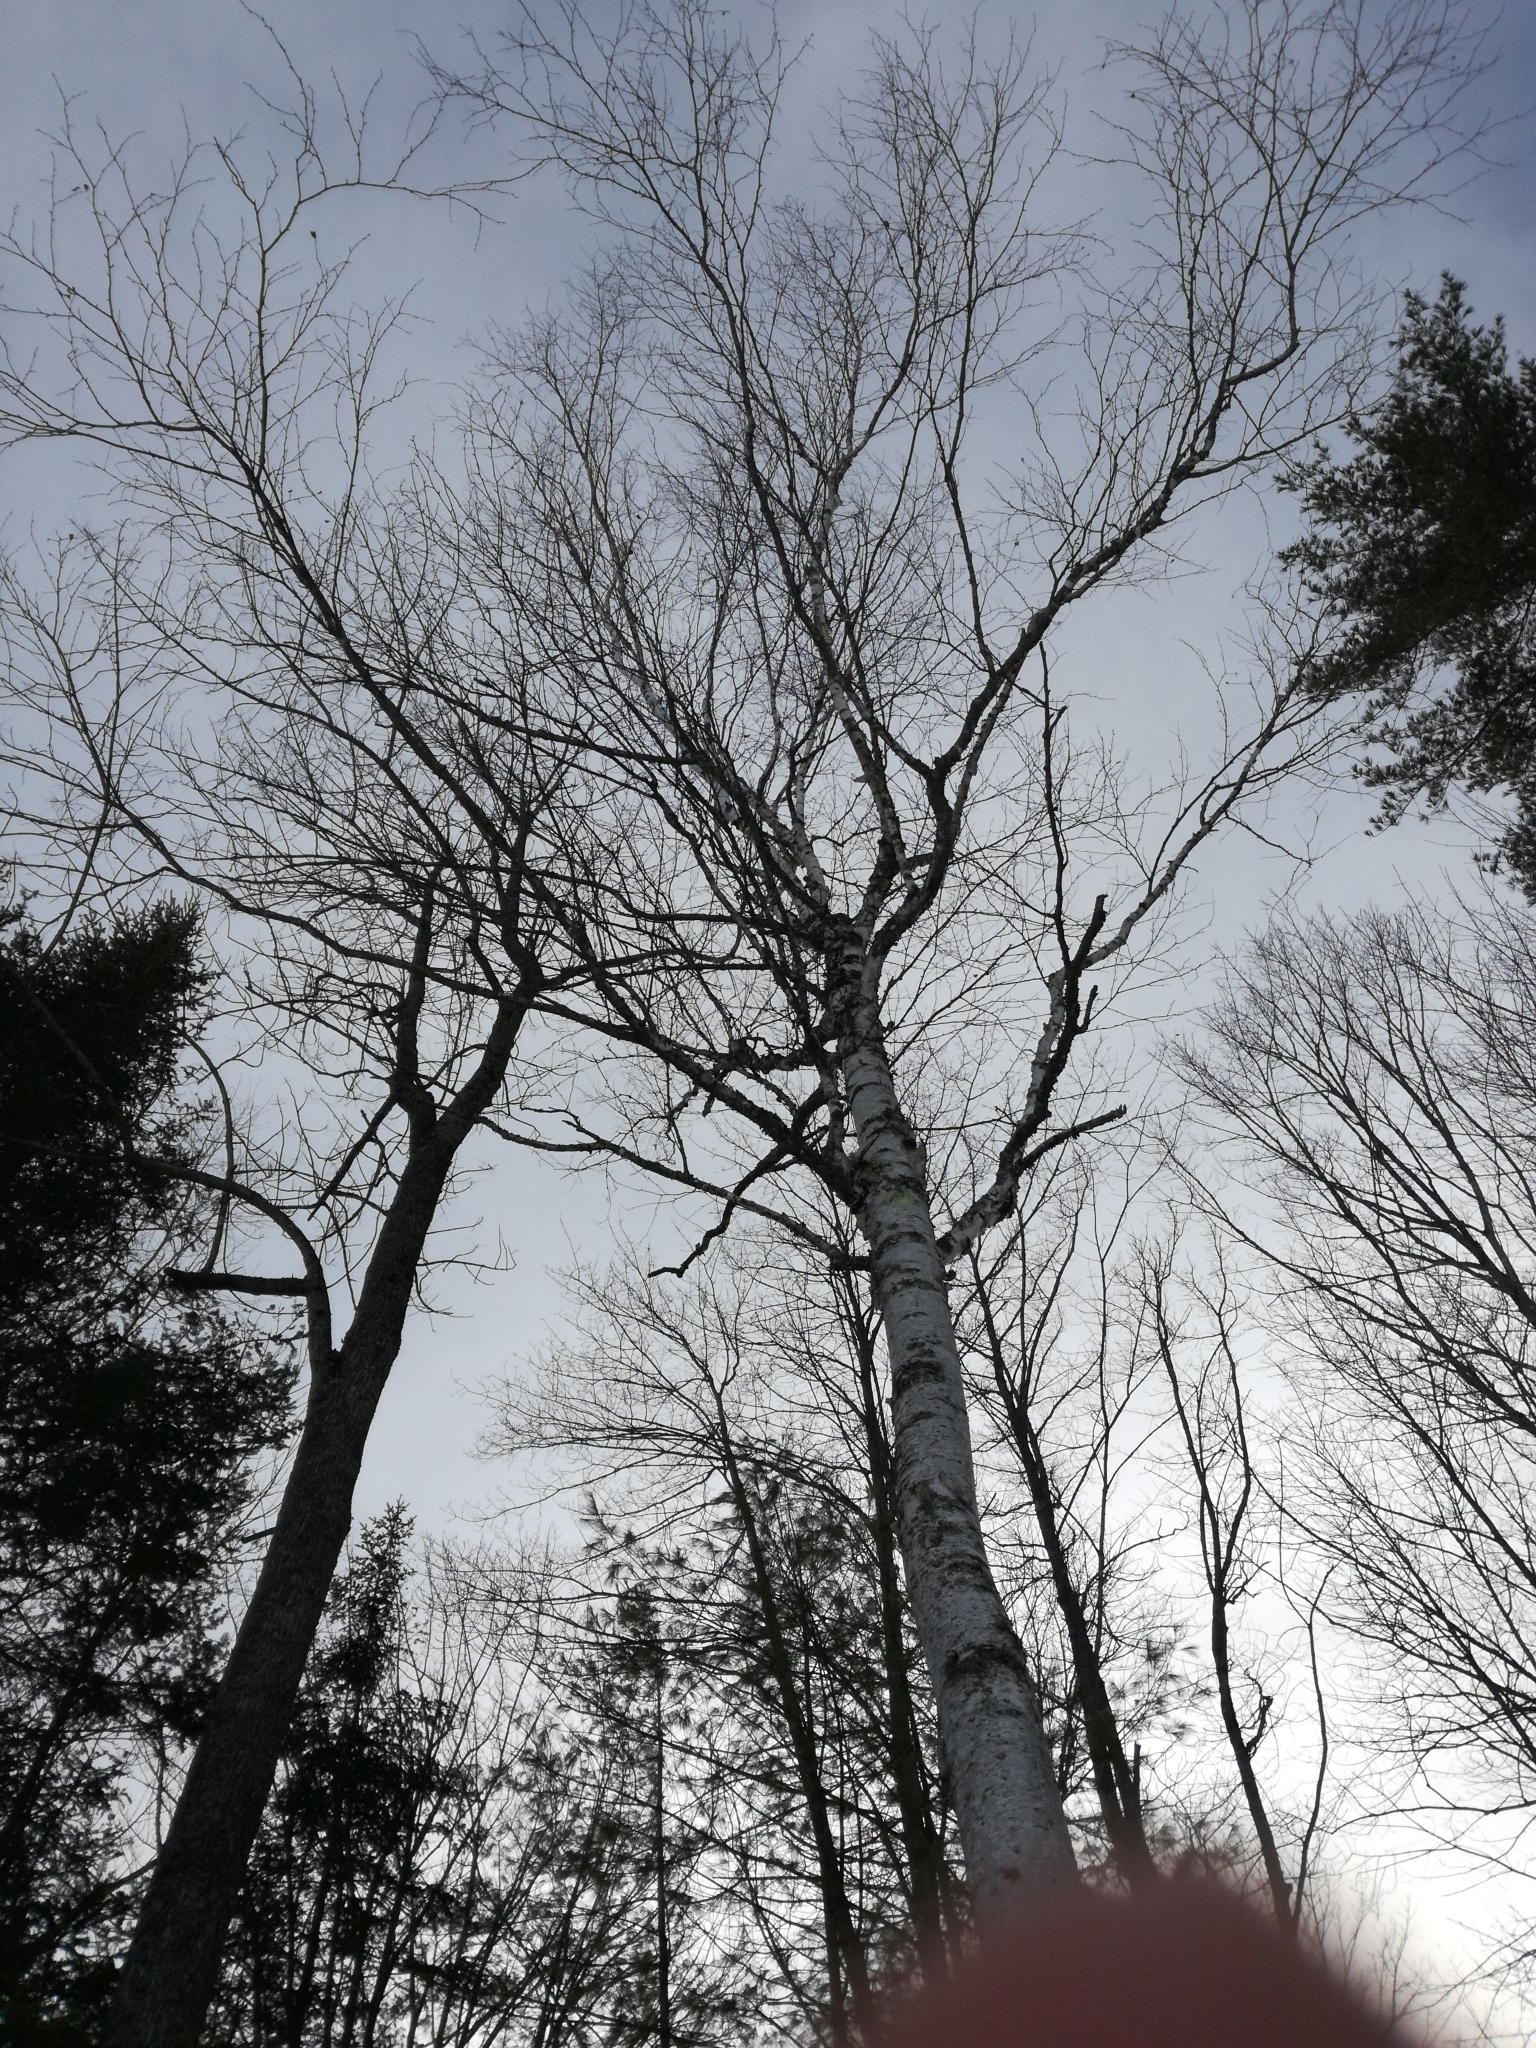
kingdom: Plantae
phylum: Tracheophyta
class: Magnoliopsida
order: Fagales
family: Betulaceae
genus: Betula
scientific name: Betula papyrifera
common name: Paper birch
